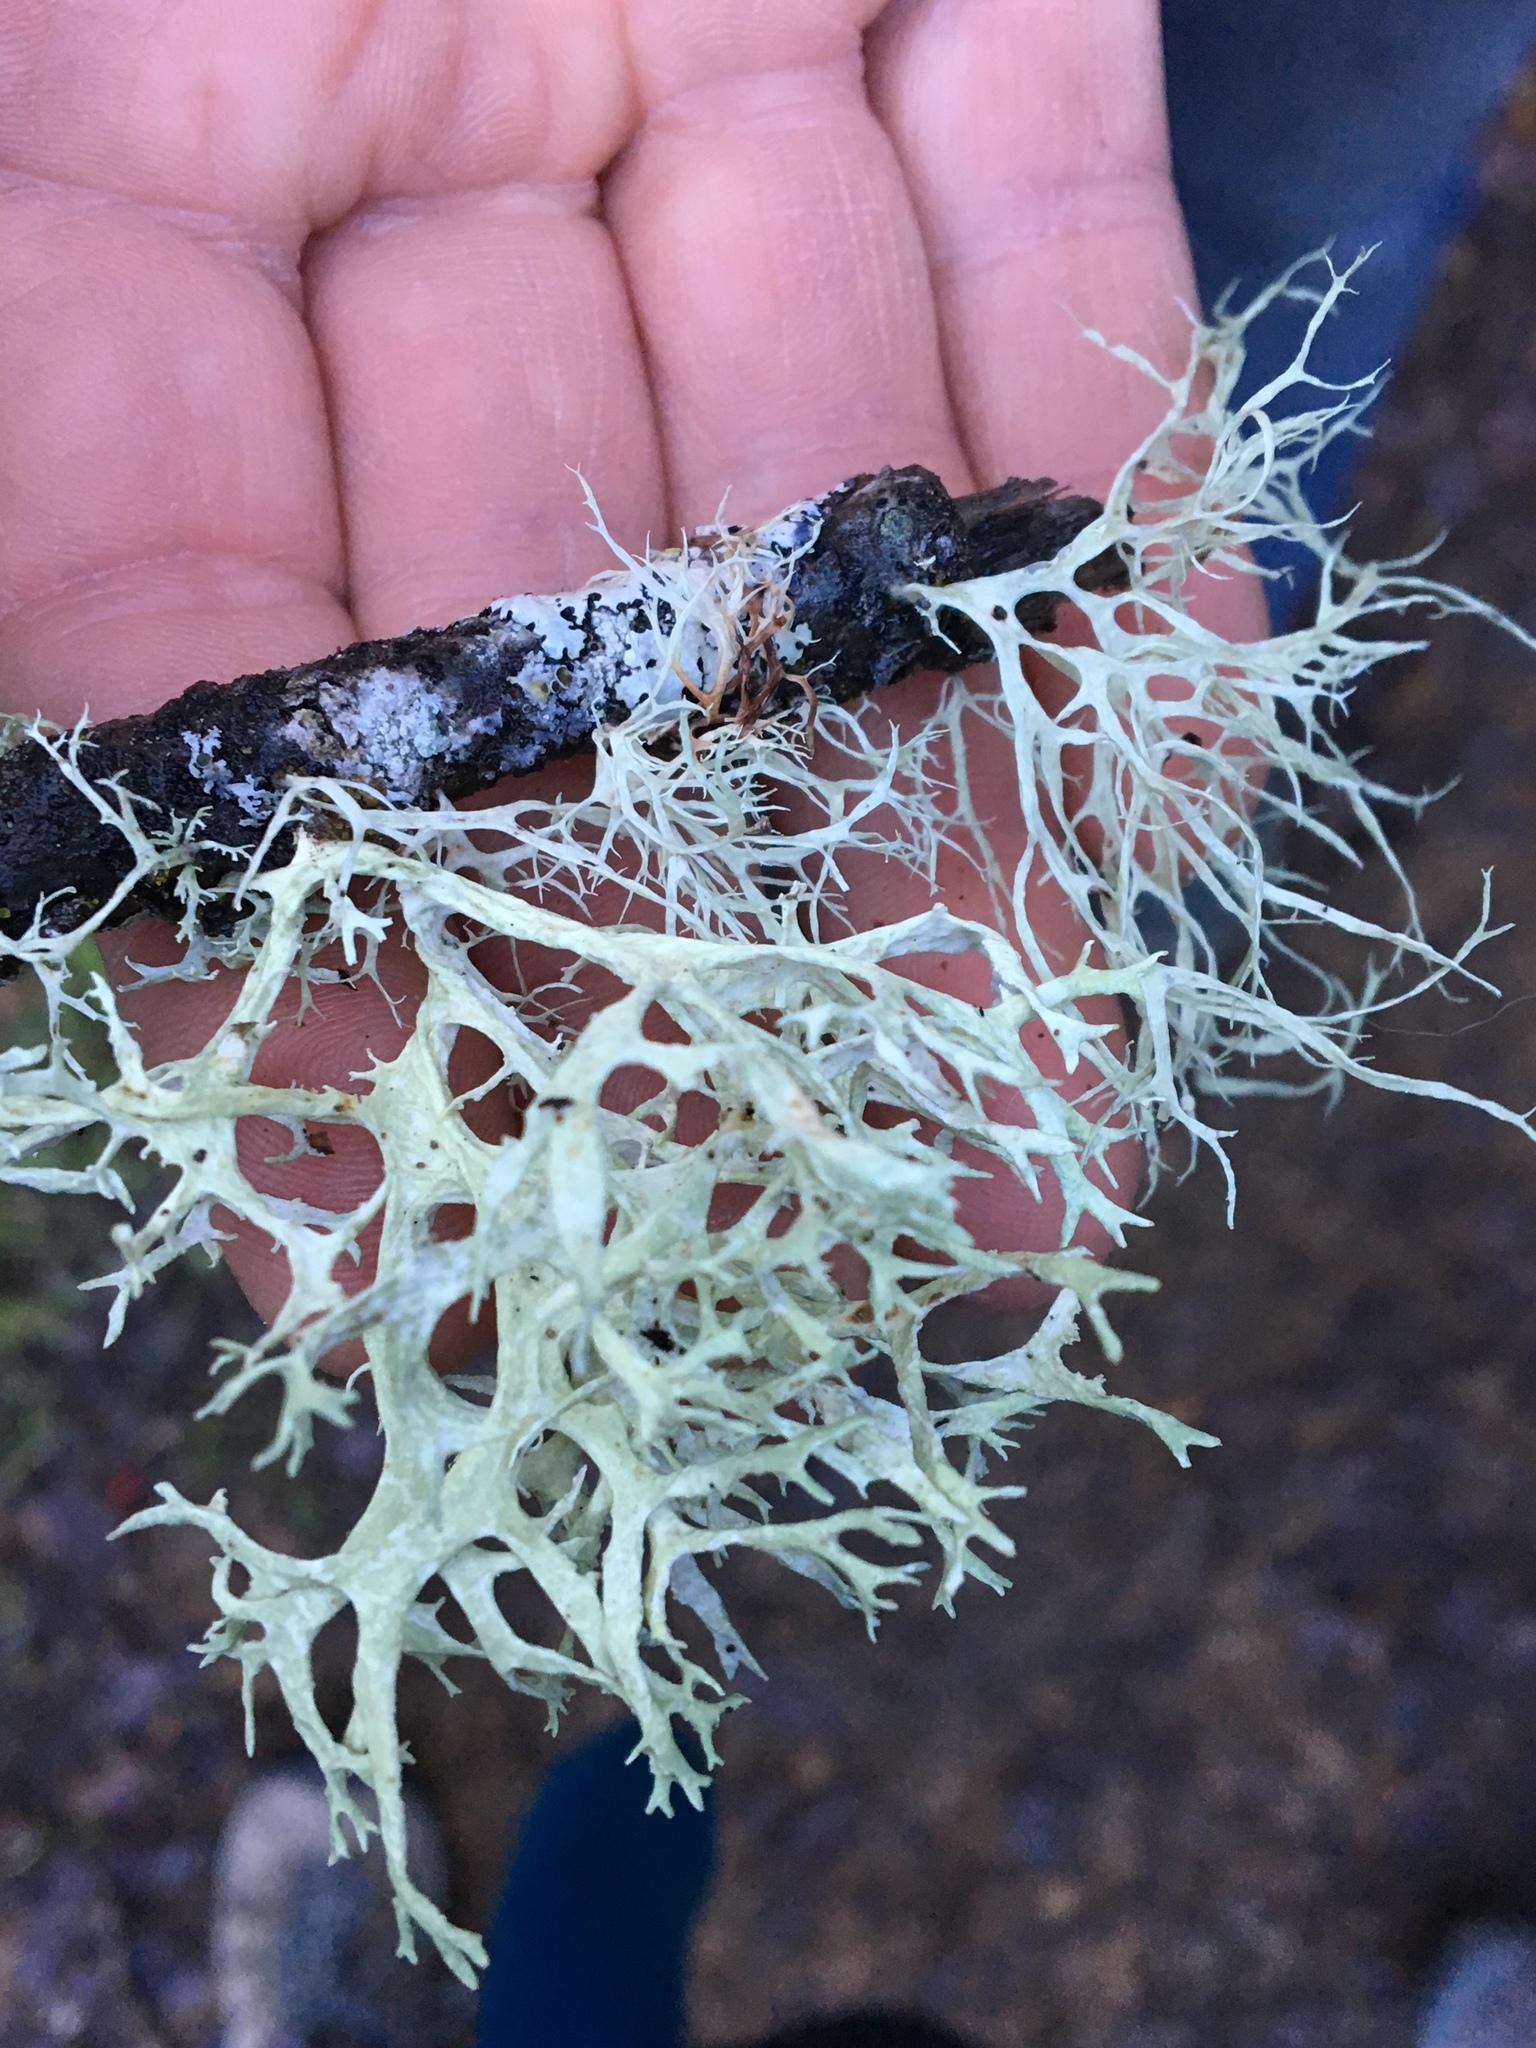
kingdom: Fungi
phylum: Ascomycota
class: Lecanoromycetes
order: Lecanorales
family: Parmeliaceae
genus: Evernia
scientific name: Evernia prunastri
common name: Oak moss
